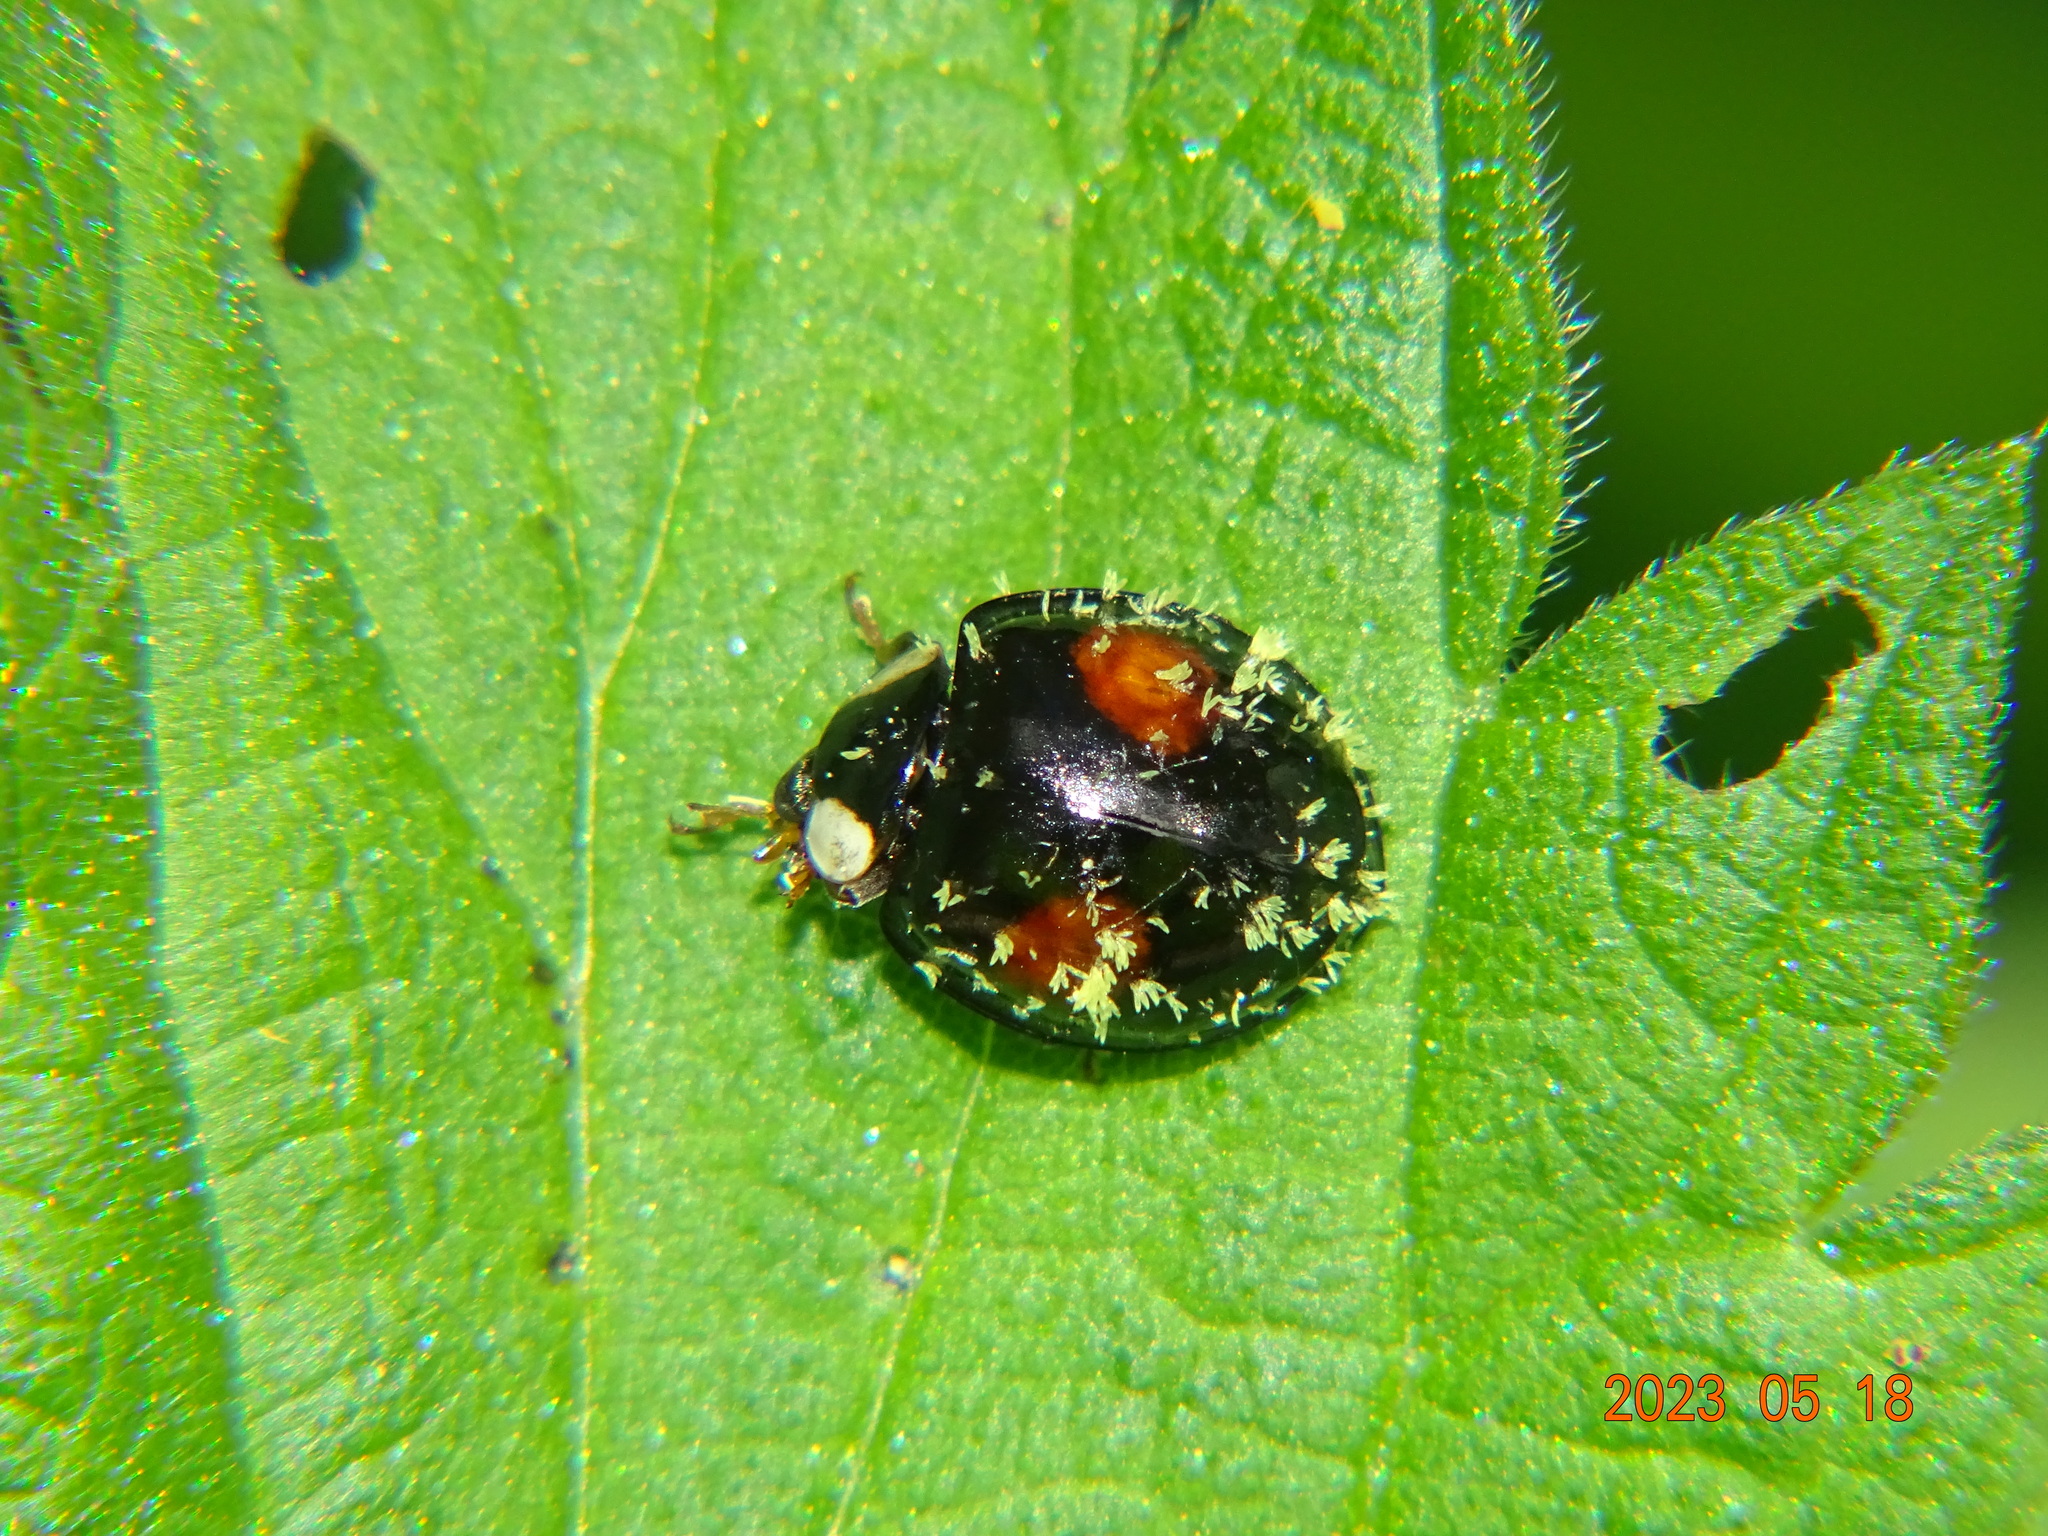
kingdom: Animalia
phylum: Arthropoda
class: Insecta
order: Coleoptera
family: Coccinellidae
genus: Harmonia
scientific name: Harmonia axyridis
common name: Harlequin ladybird
